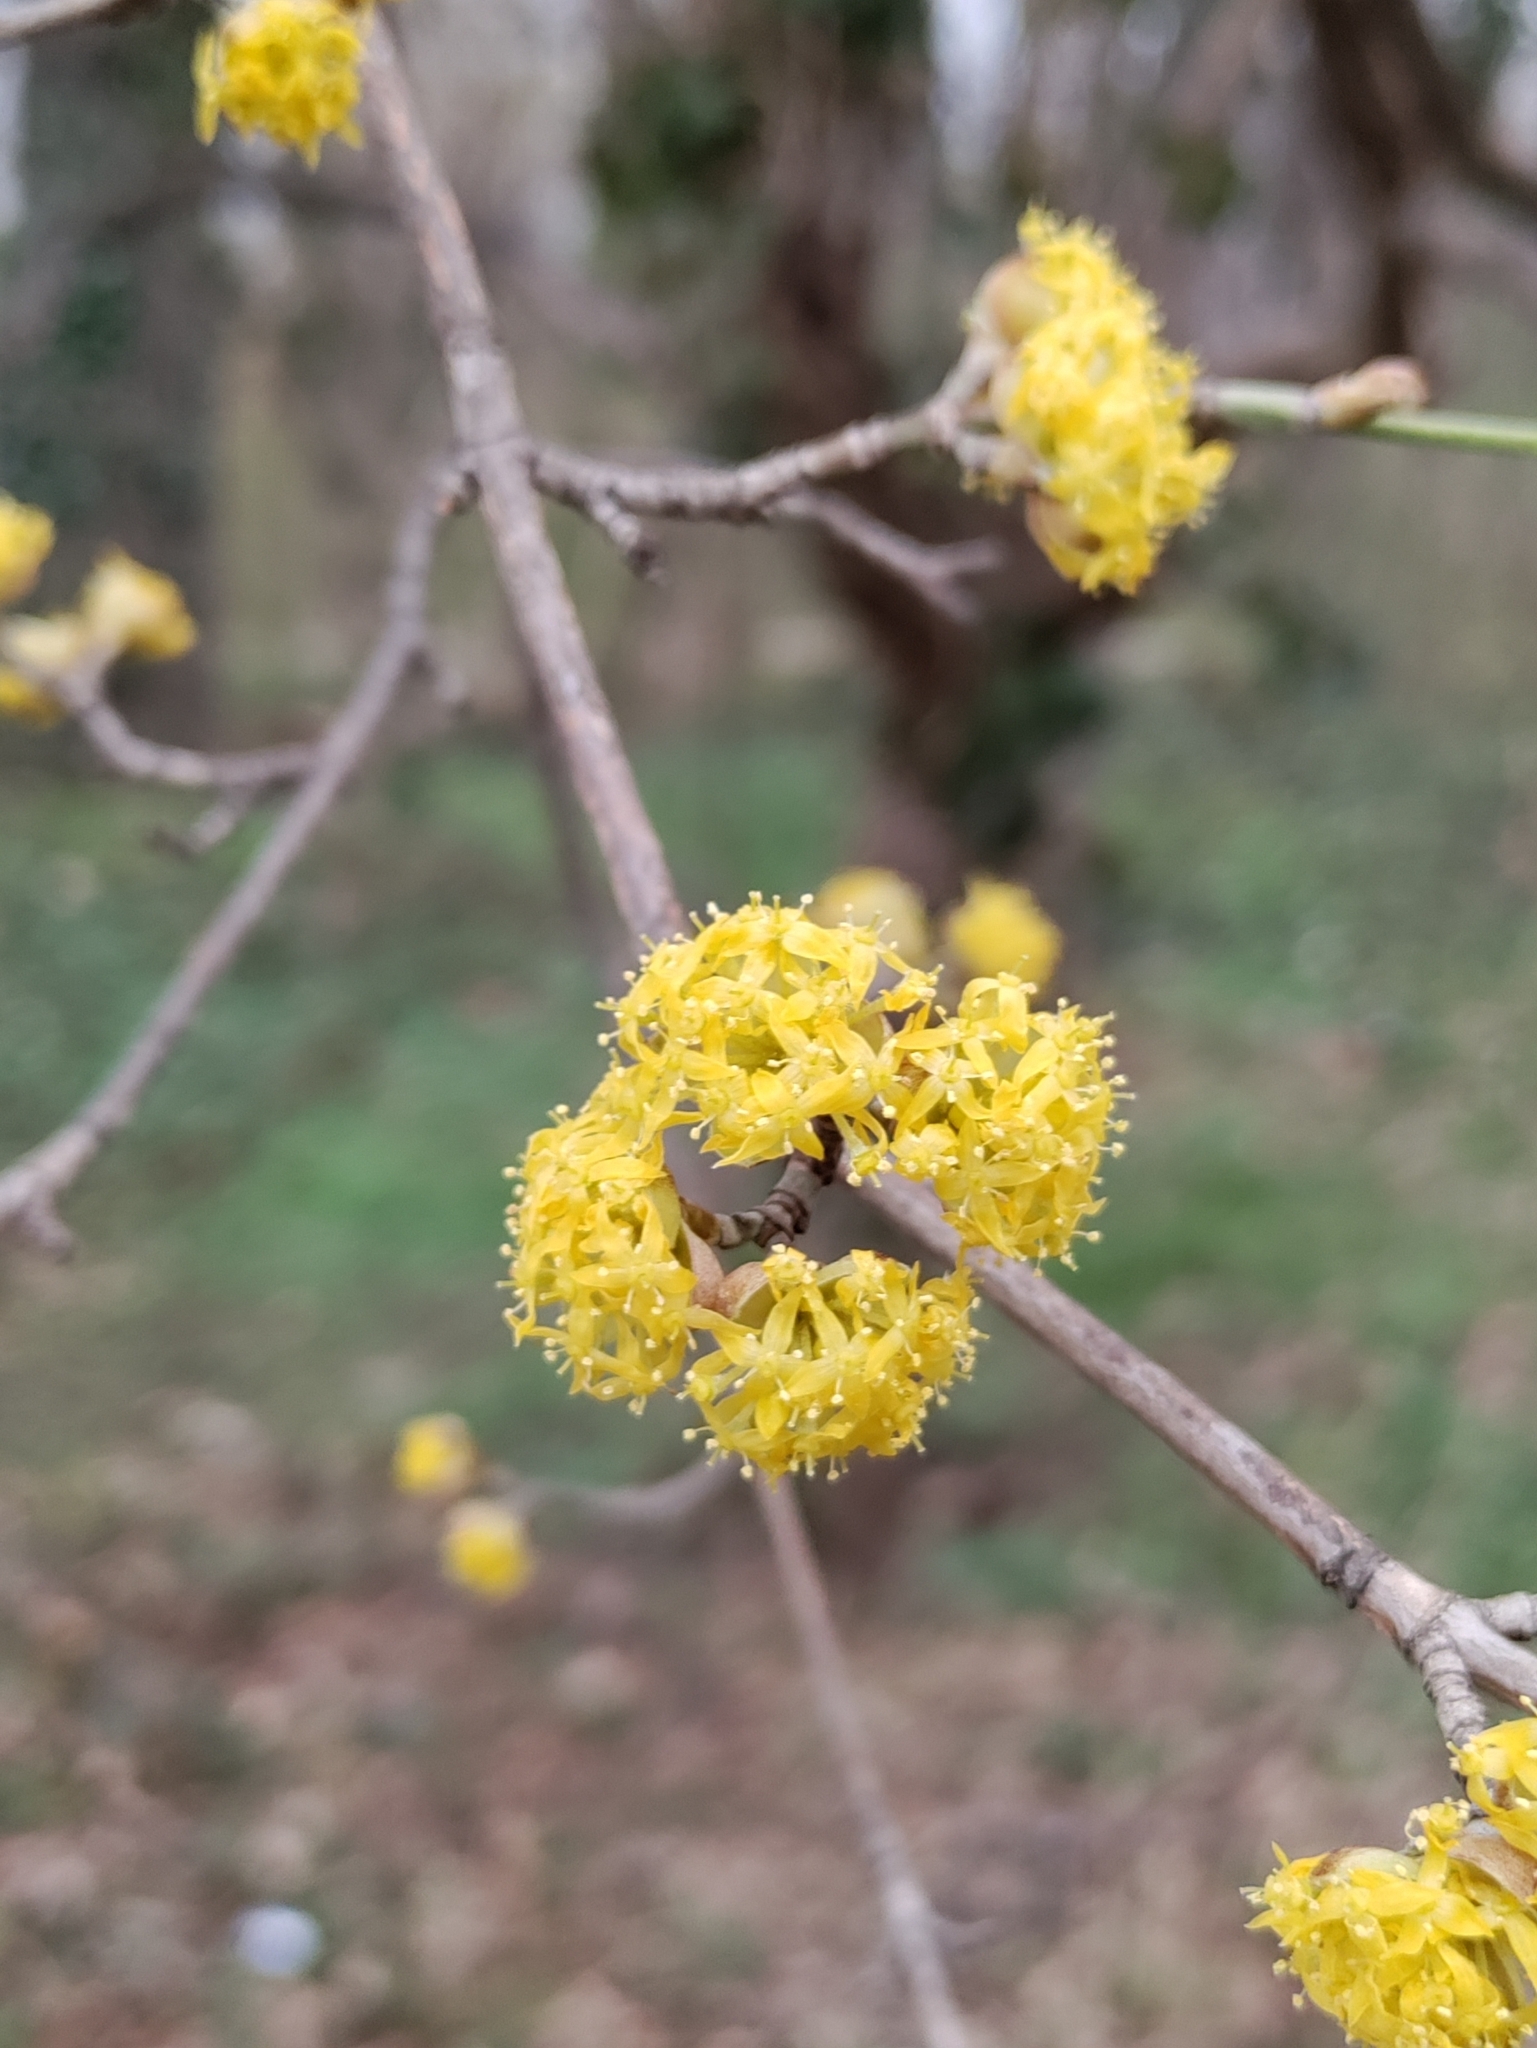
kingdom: Plantae
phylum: Tracheophyta
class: Magnoliopsida
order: Cornales
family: Cornaceae
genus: Cornus
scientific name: Cornus mas
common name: Cornelian-cherry
